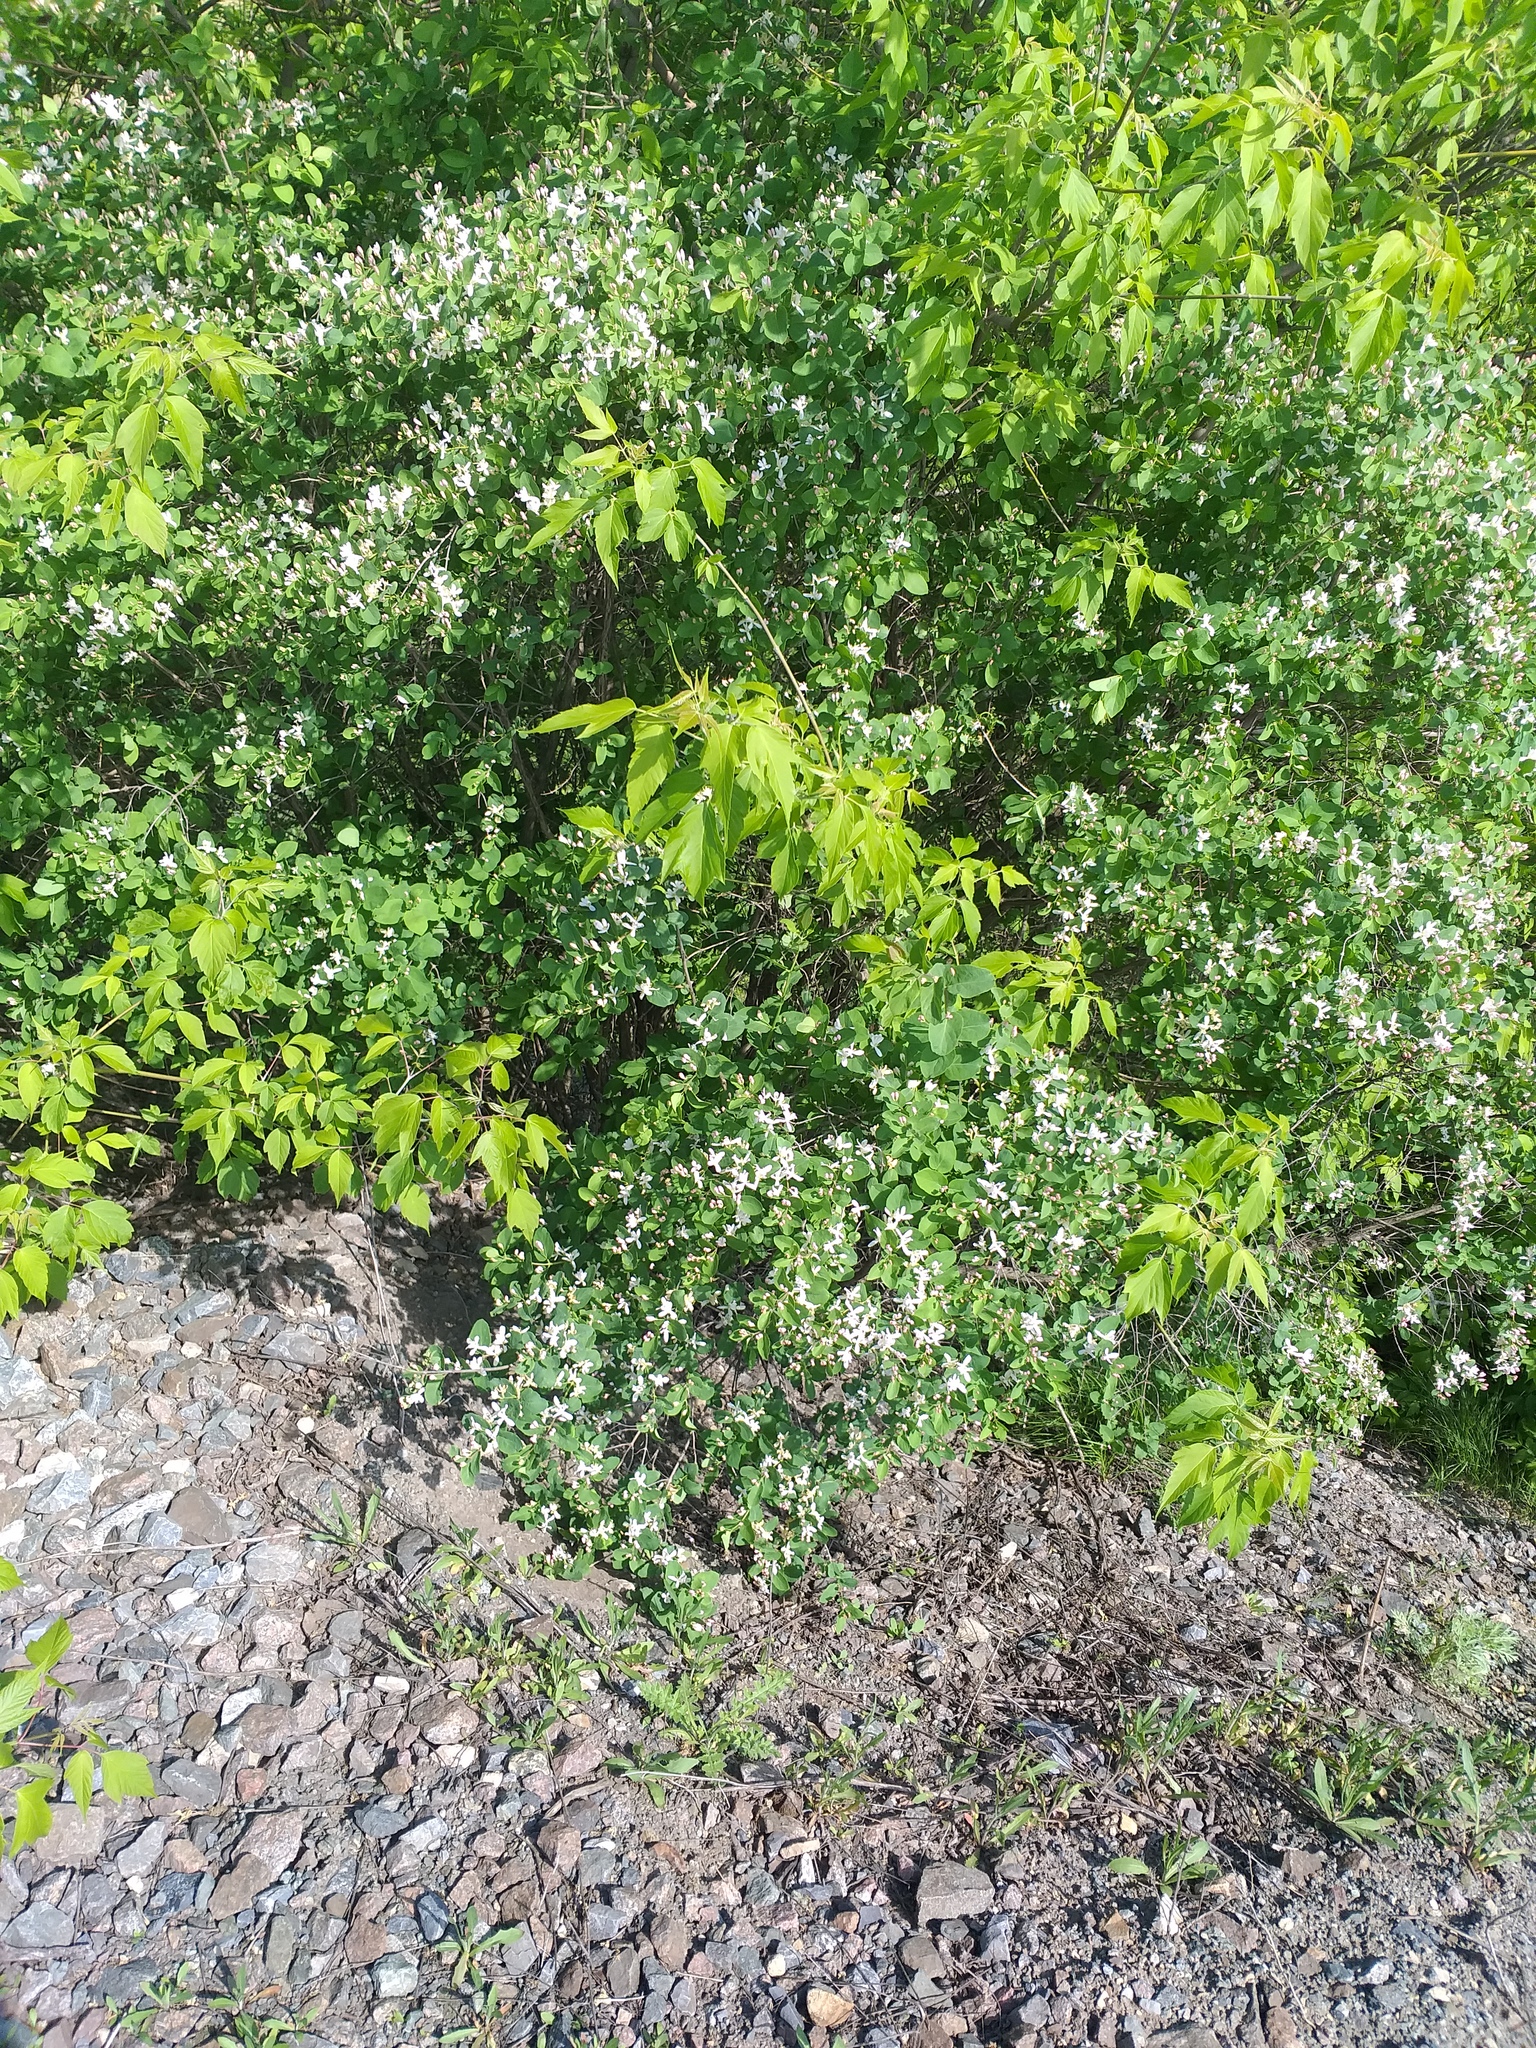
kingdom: Plantae
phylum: Tracheophyta
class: Magnoliopsida
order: Dipsacales
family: Caprifoliaceae
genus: Lonicera
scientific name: Lonicera tatarica
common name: Tatarian honeysuckle
